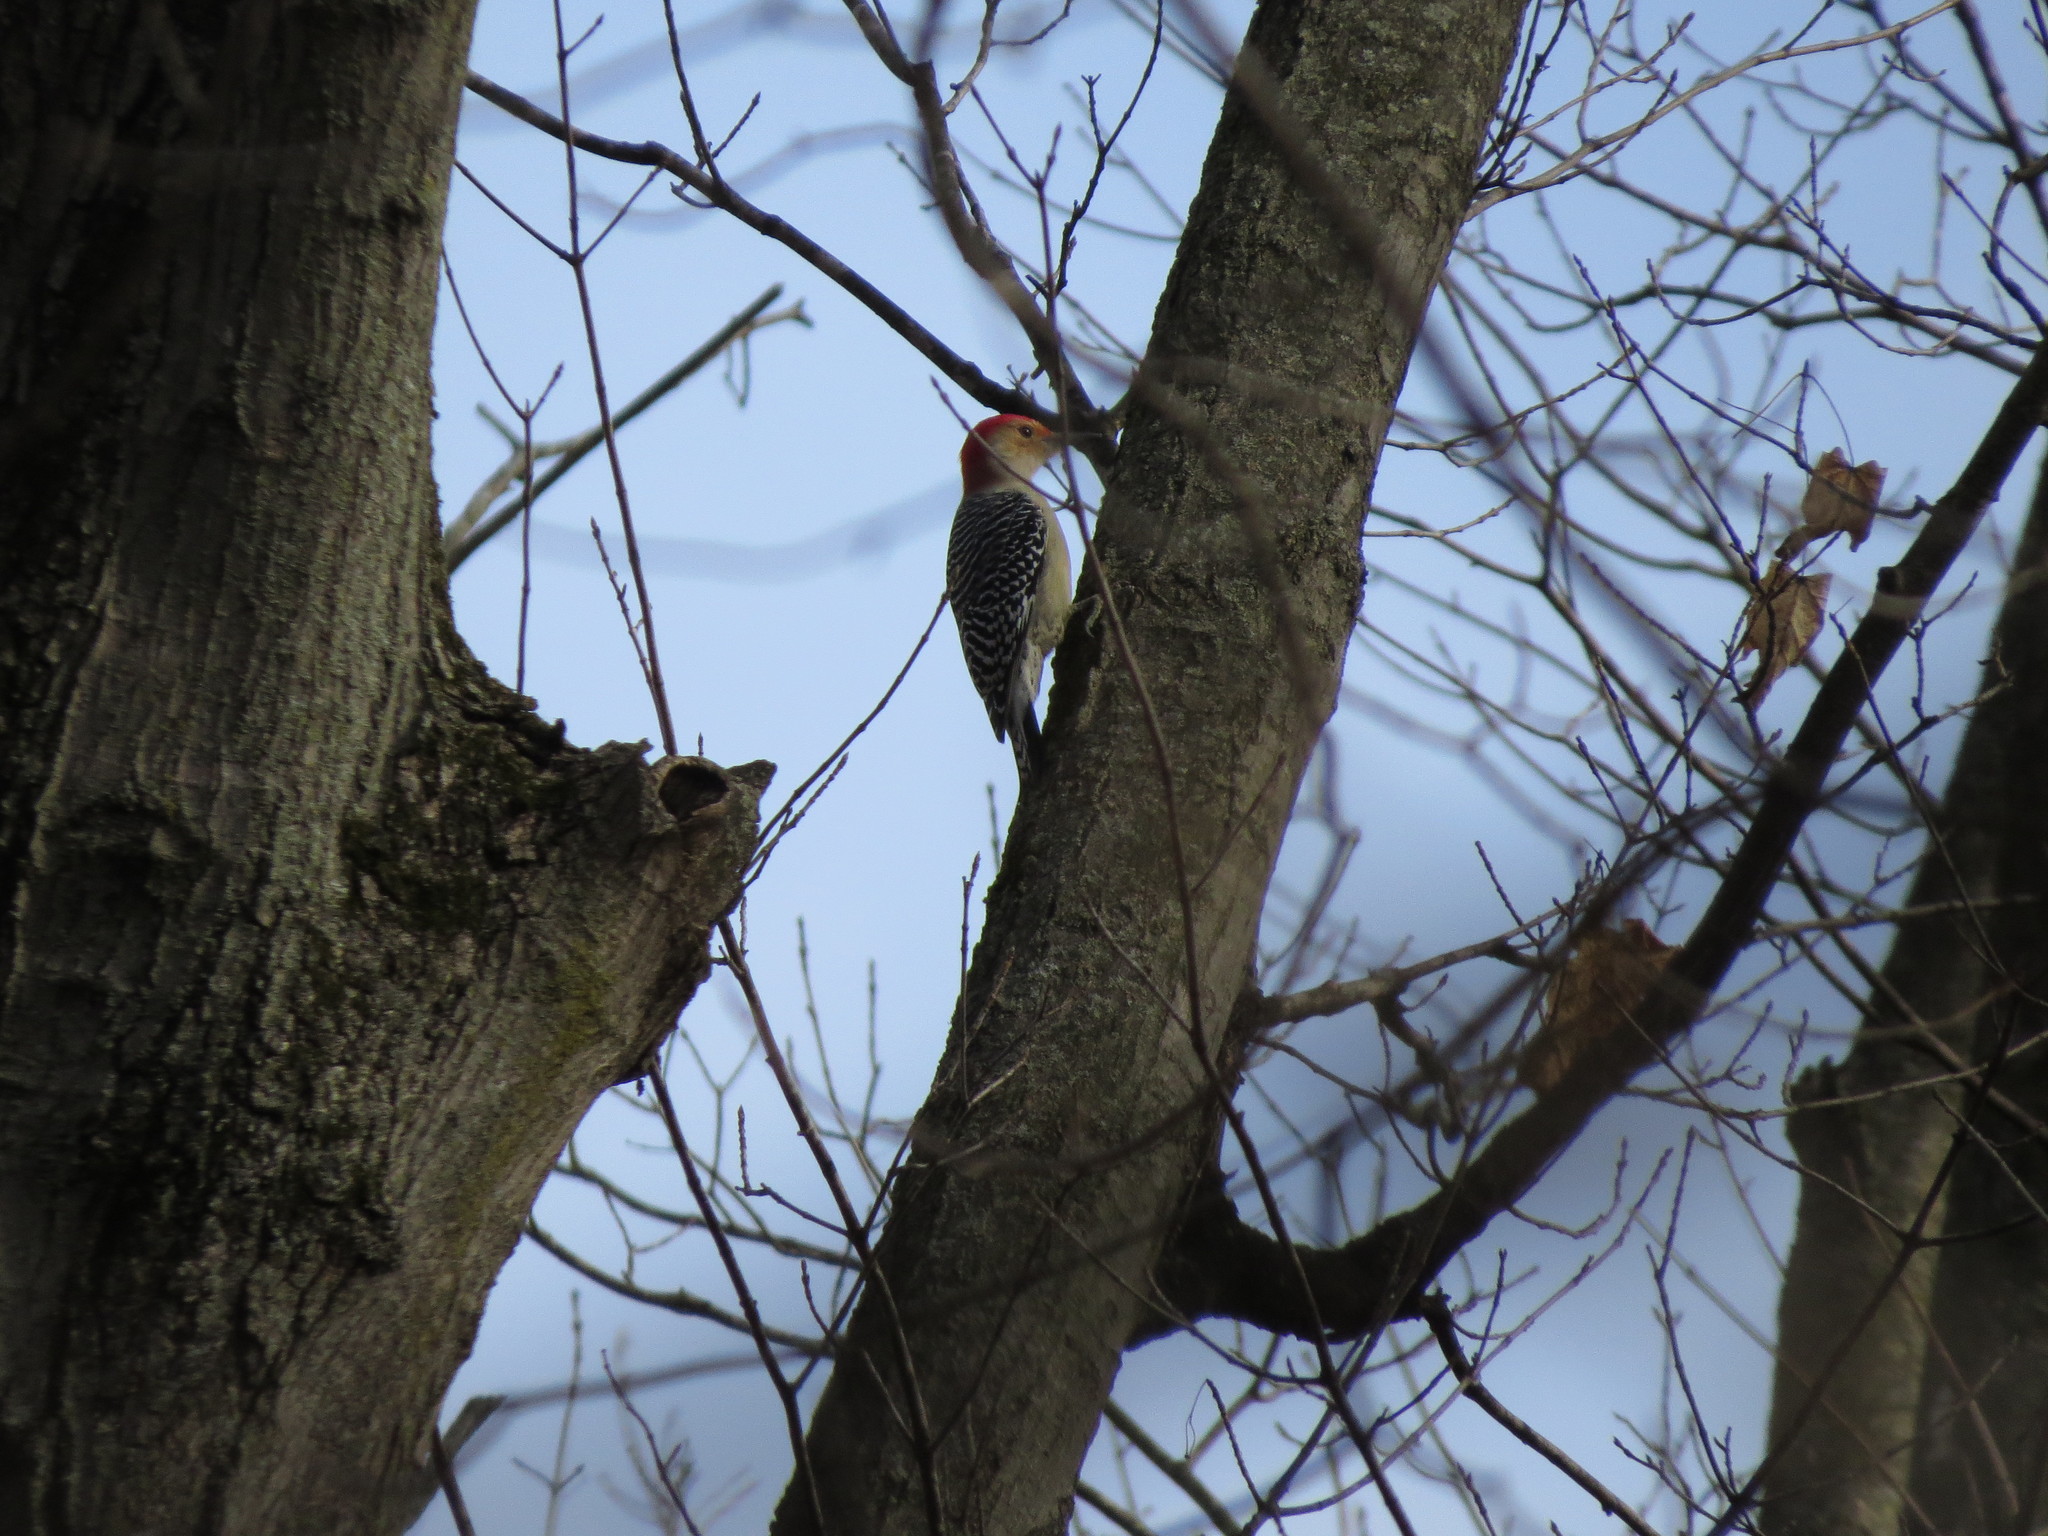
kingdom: Animalia
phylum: Chordata
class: Aves
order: Piciformes
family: Picidae
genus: Melanerpes
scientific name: Melanerpes carolinus
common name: Red-bellied woodpecker
